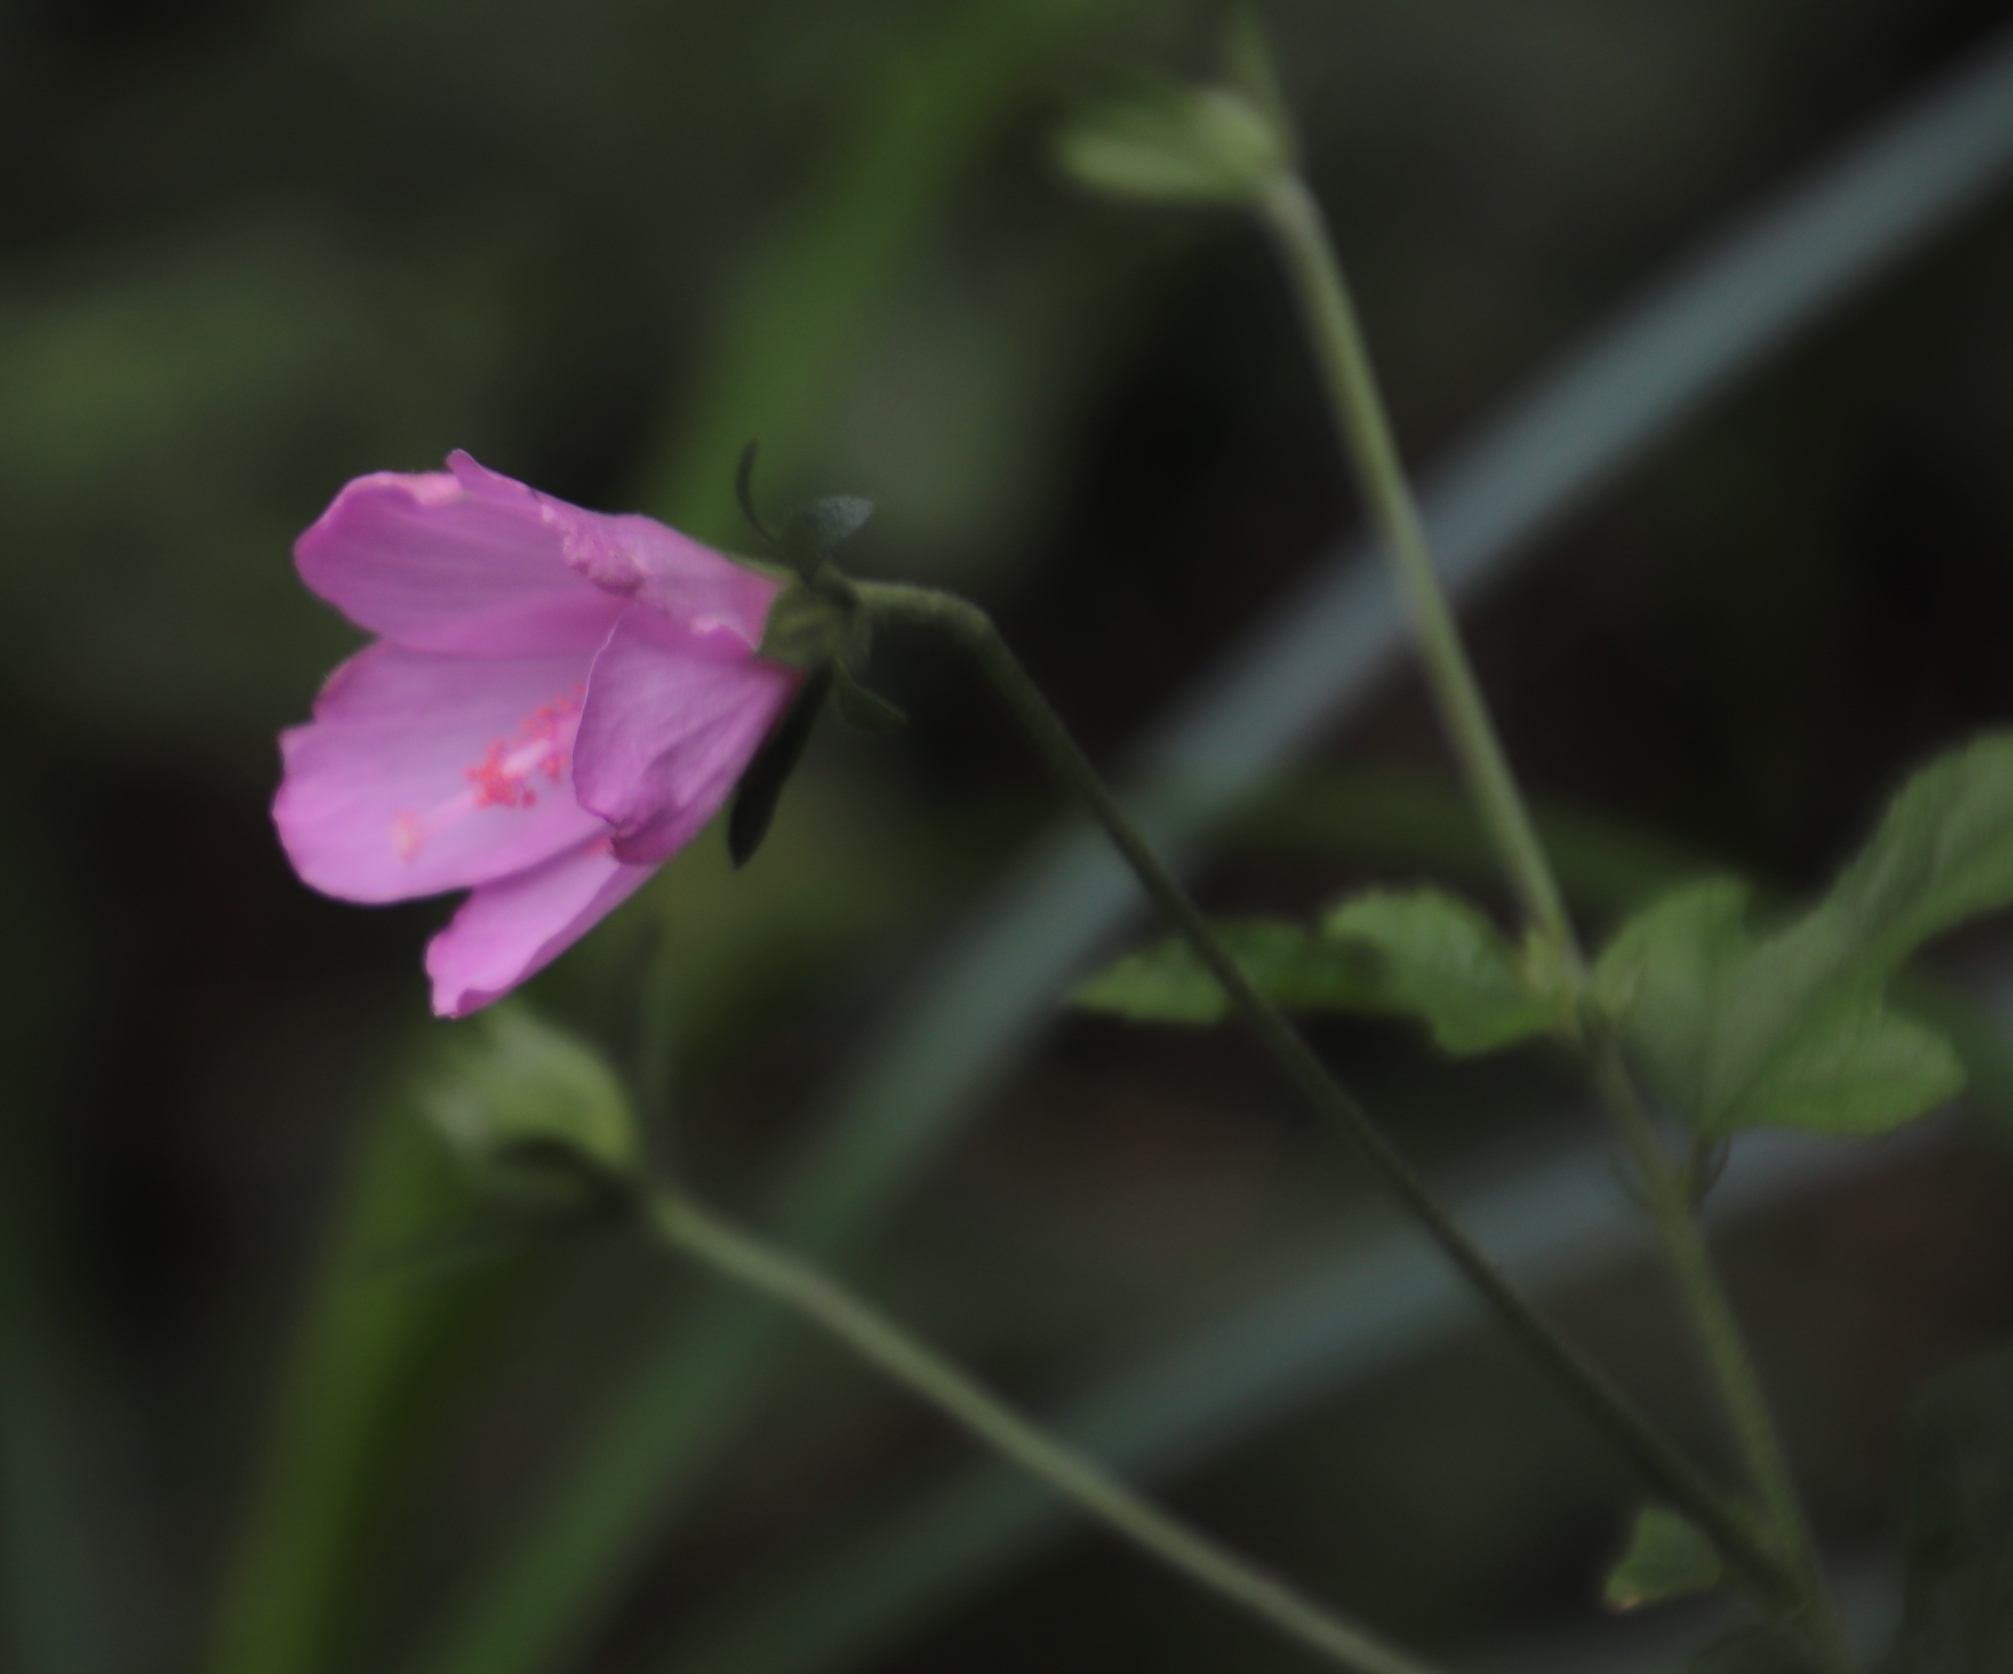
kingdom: Plantae
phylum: Tracheophyta
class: Magnoliopsida
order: Malvales
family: Malvaceae
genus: Hibiscus
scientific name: Hibiscus pedunculatus
